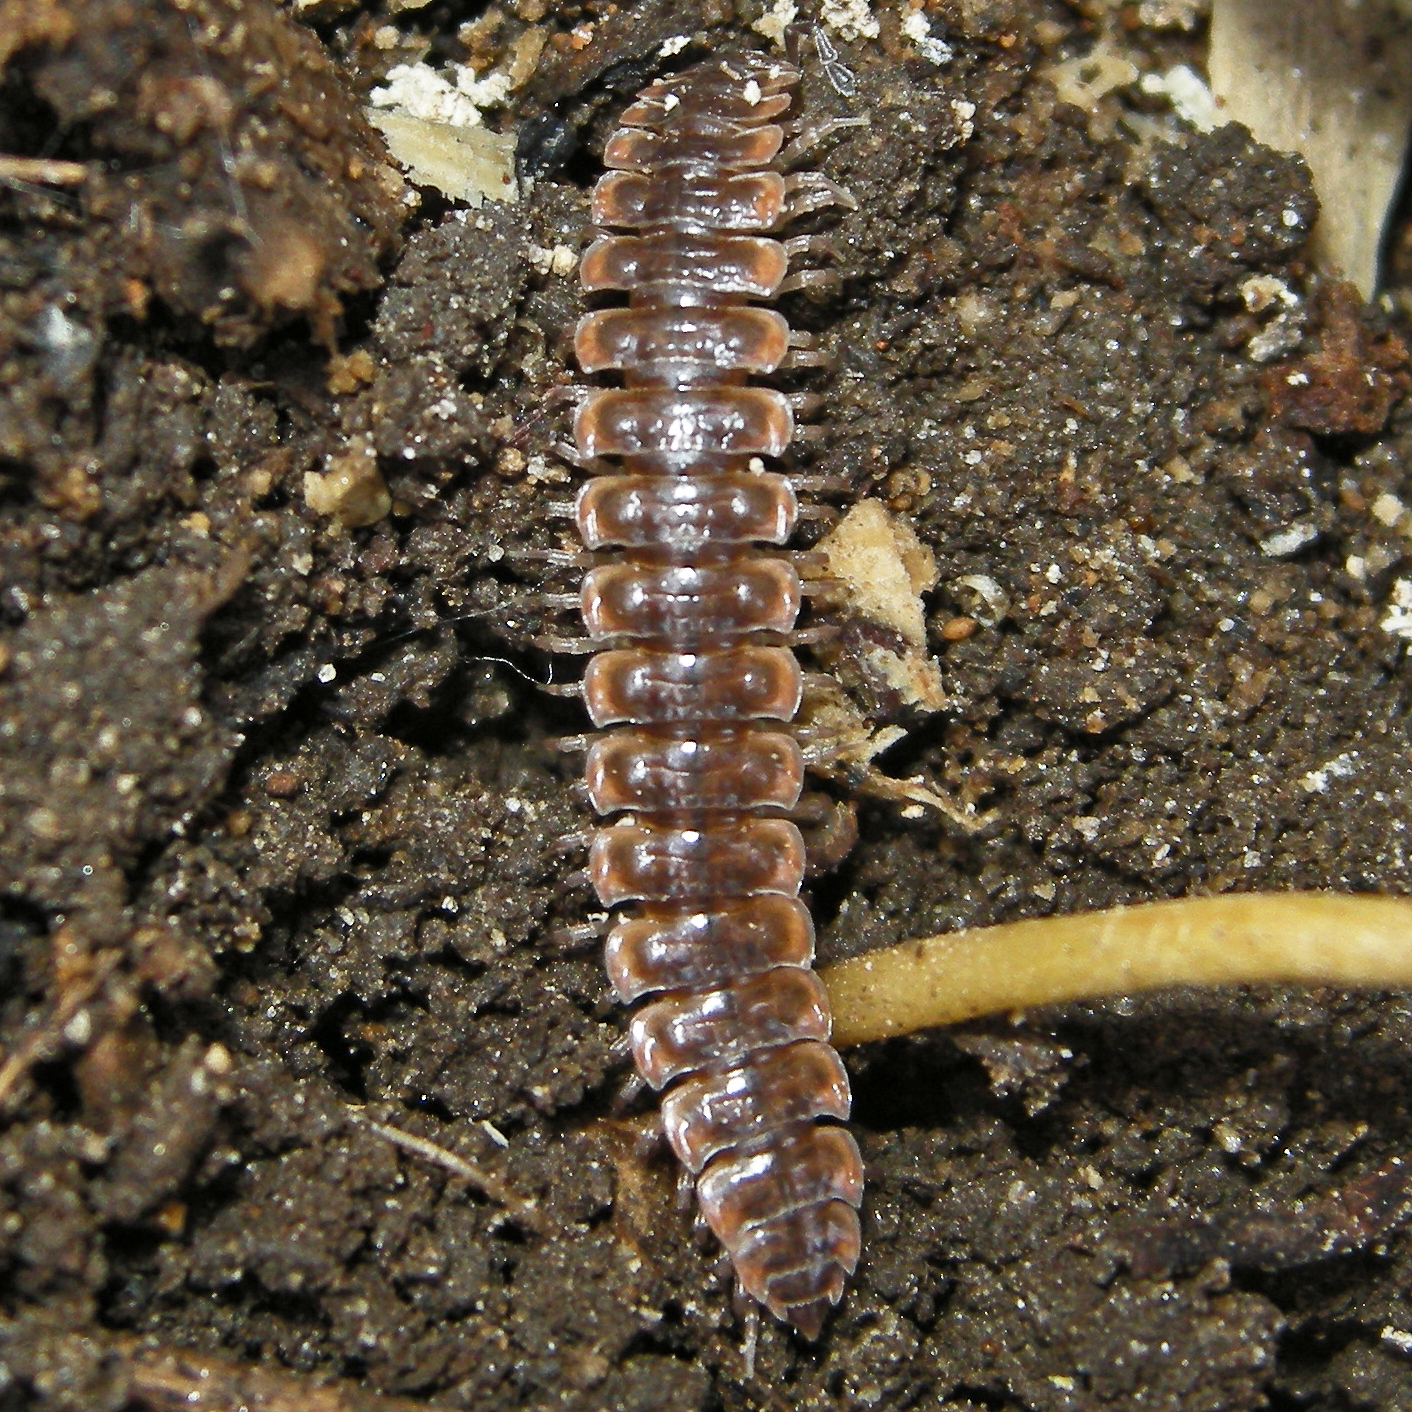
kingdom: Animalia
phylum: Arthropoda
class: Diplopoda
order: Polydesmida
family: Polydesmidae
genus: Pseudopolydesmus
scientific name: Pseudopolydesmus serratus
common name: Common pink flat-back millipede
